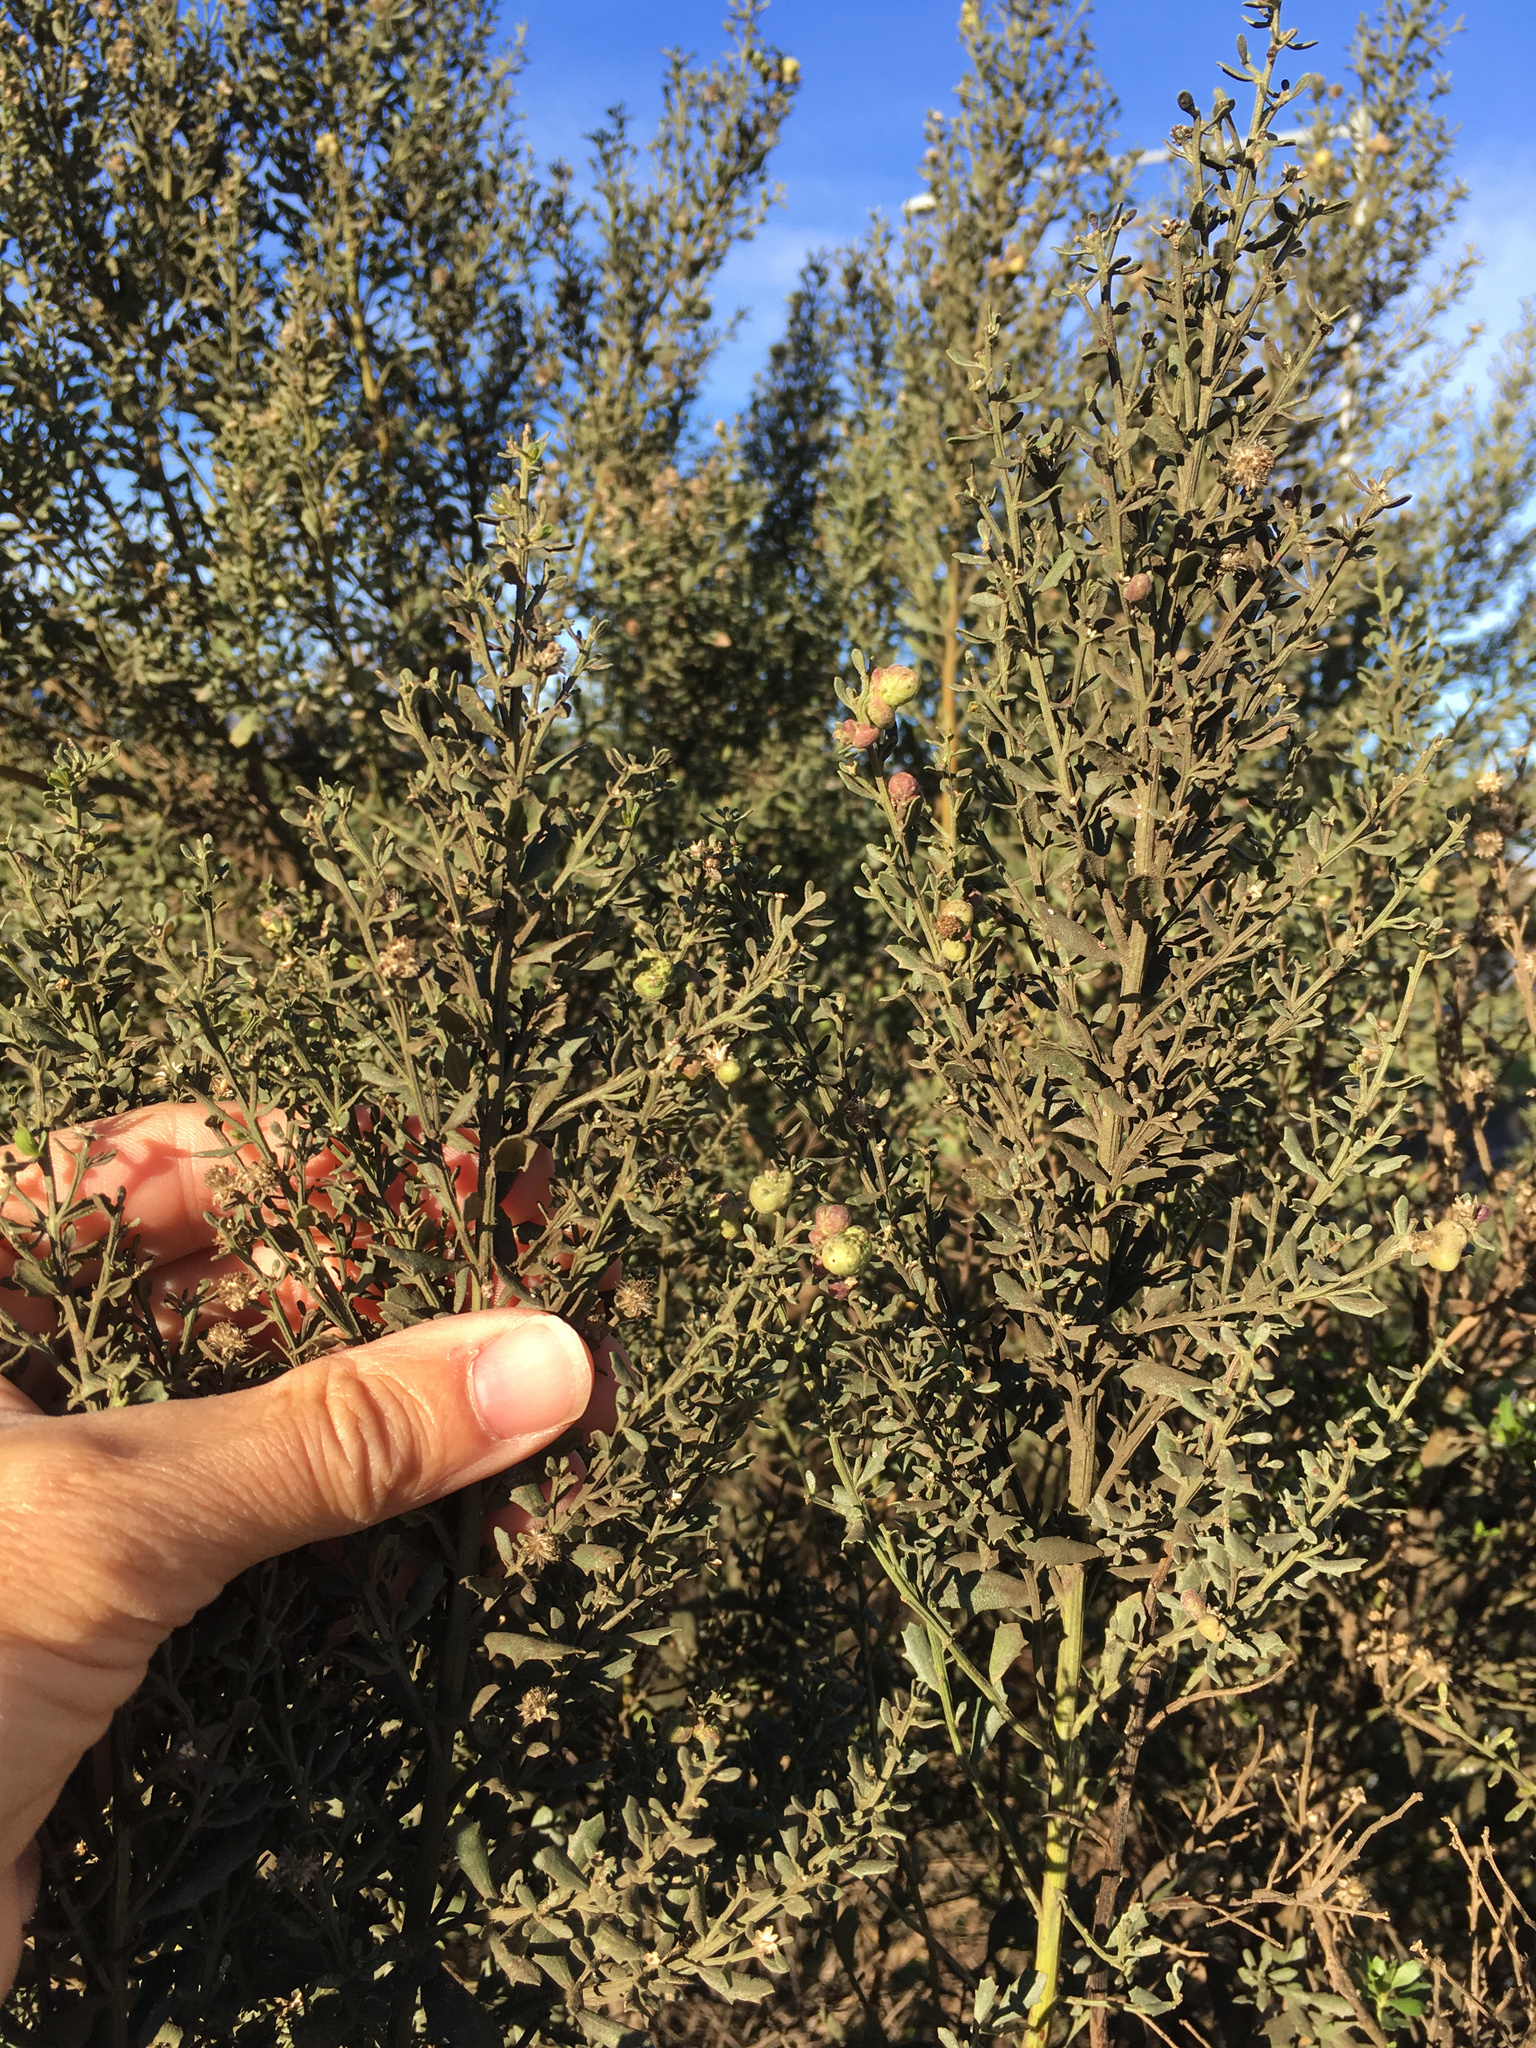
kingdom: Plantae
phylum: Tracheophyta
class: Magnoliopsida
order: Asterales
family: Asteraceae
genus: Baccharis
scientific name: Baccharis pilularis
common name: Coyotebrush
